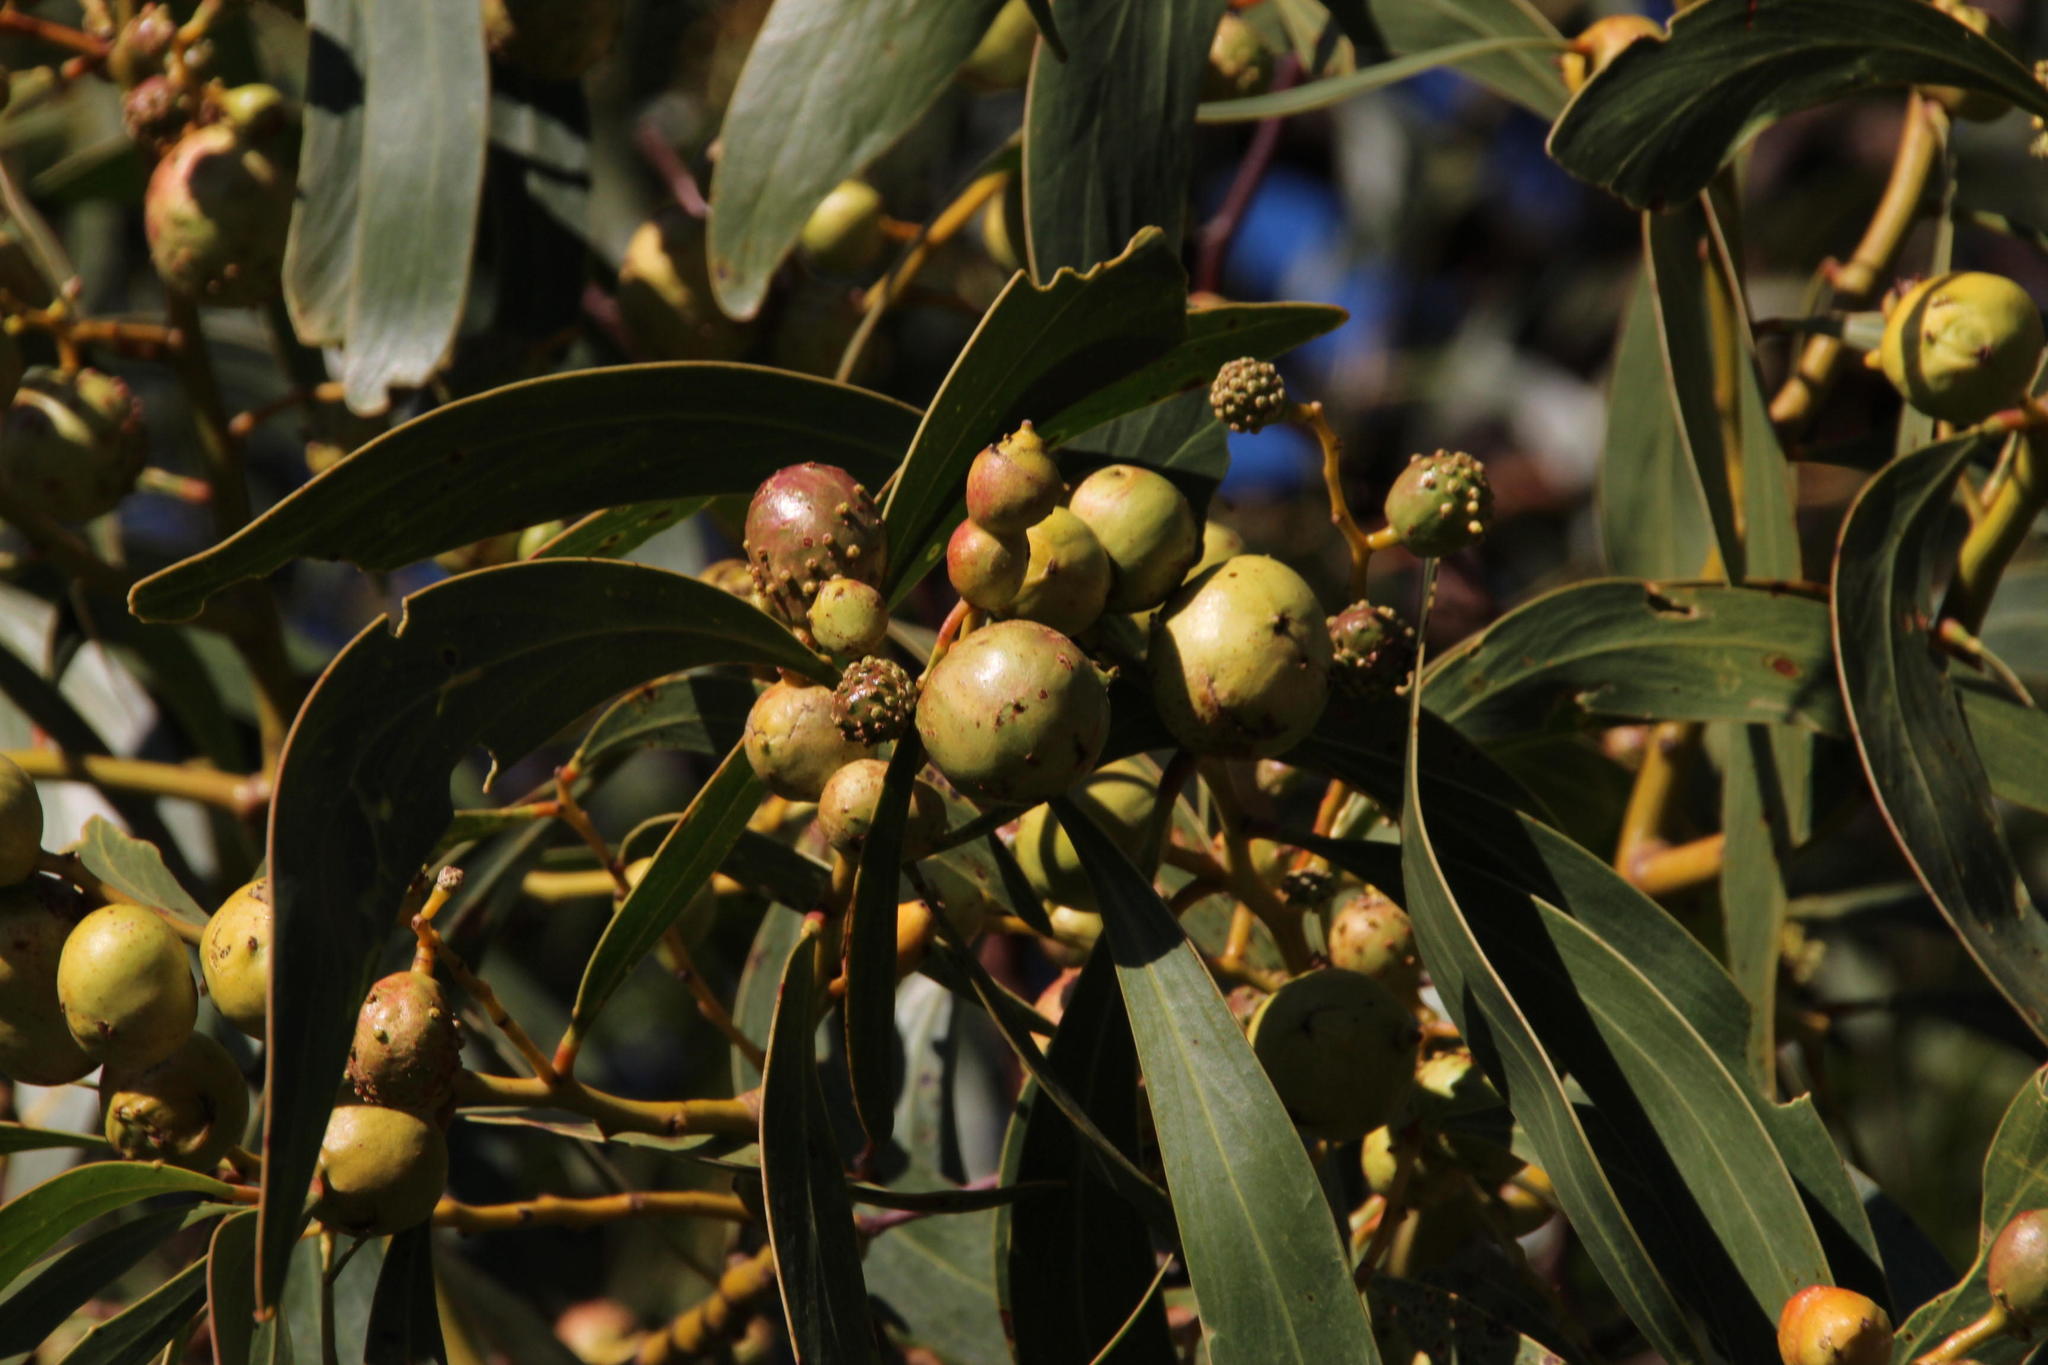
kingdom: Plantae
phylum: Tracheophyta
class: Magnoliopsida
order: Fabales
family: Fabaceae
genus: Acacia
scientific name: Acacia pycnantha
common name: Golden wattle
